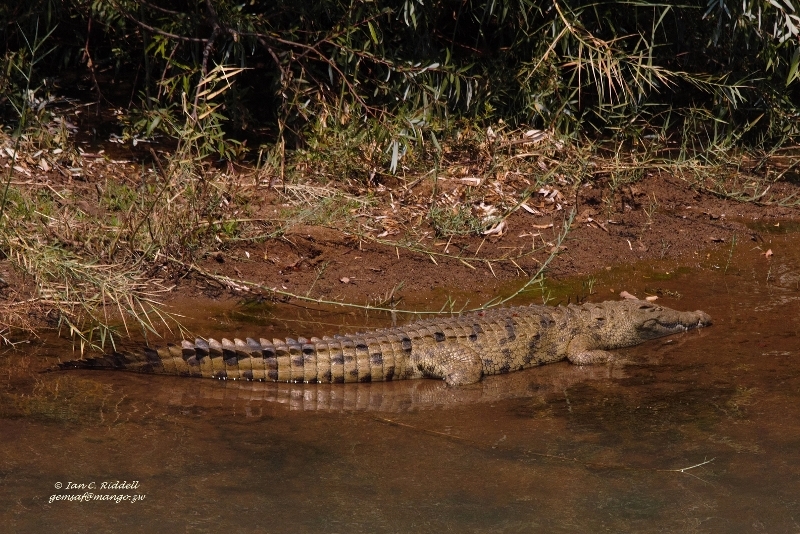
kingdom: Animalia
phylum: Chordata
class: Crocodylia
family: Crocodylidae
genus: Crocodylus
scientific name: Crocodylus niloticus
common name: Nile crocodile
